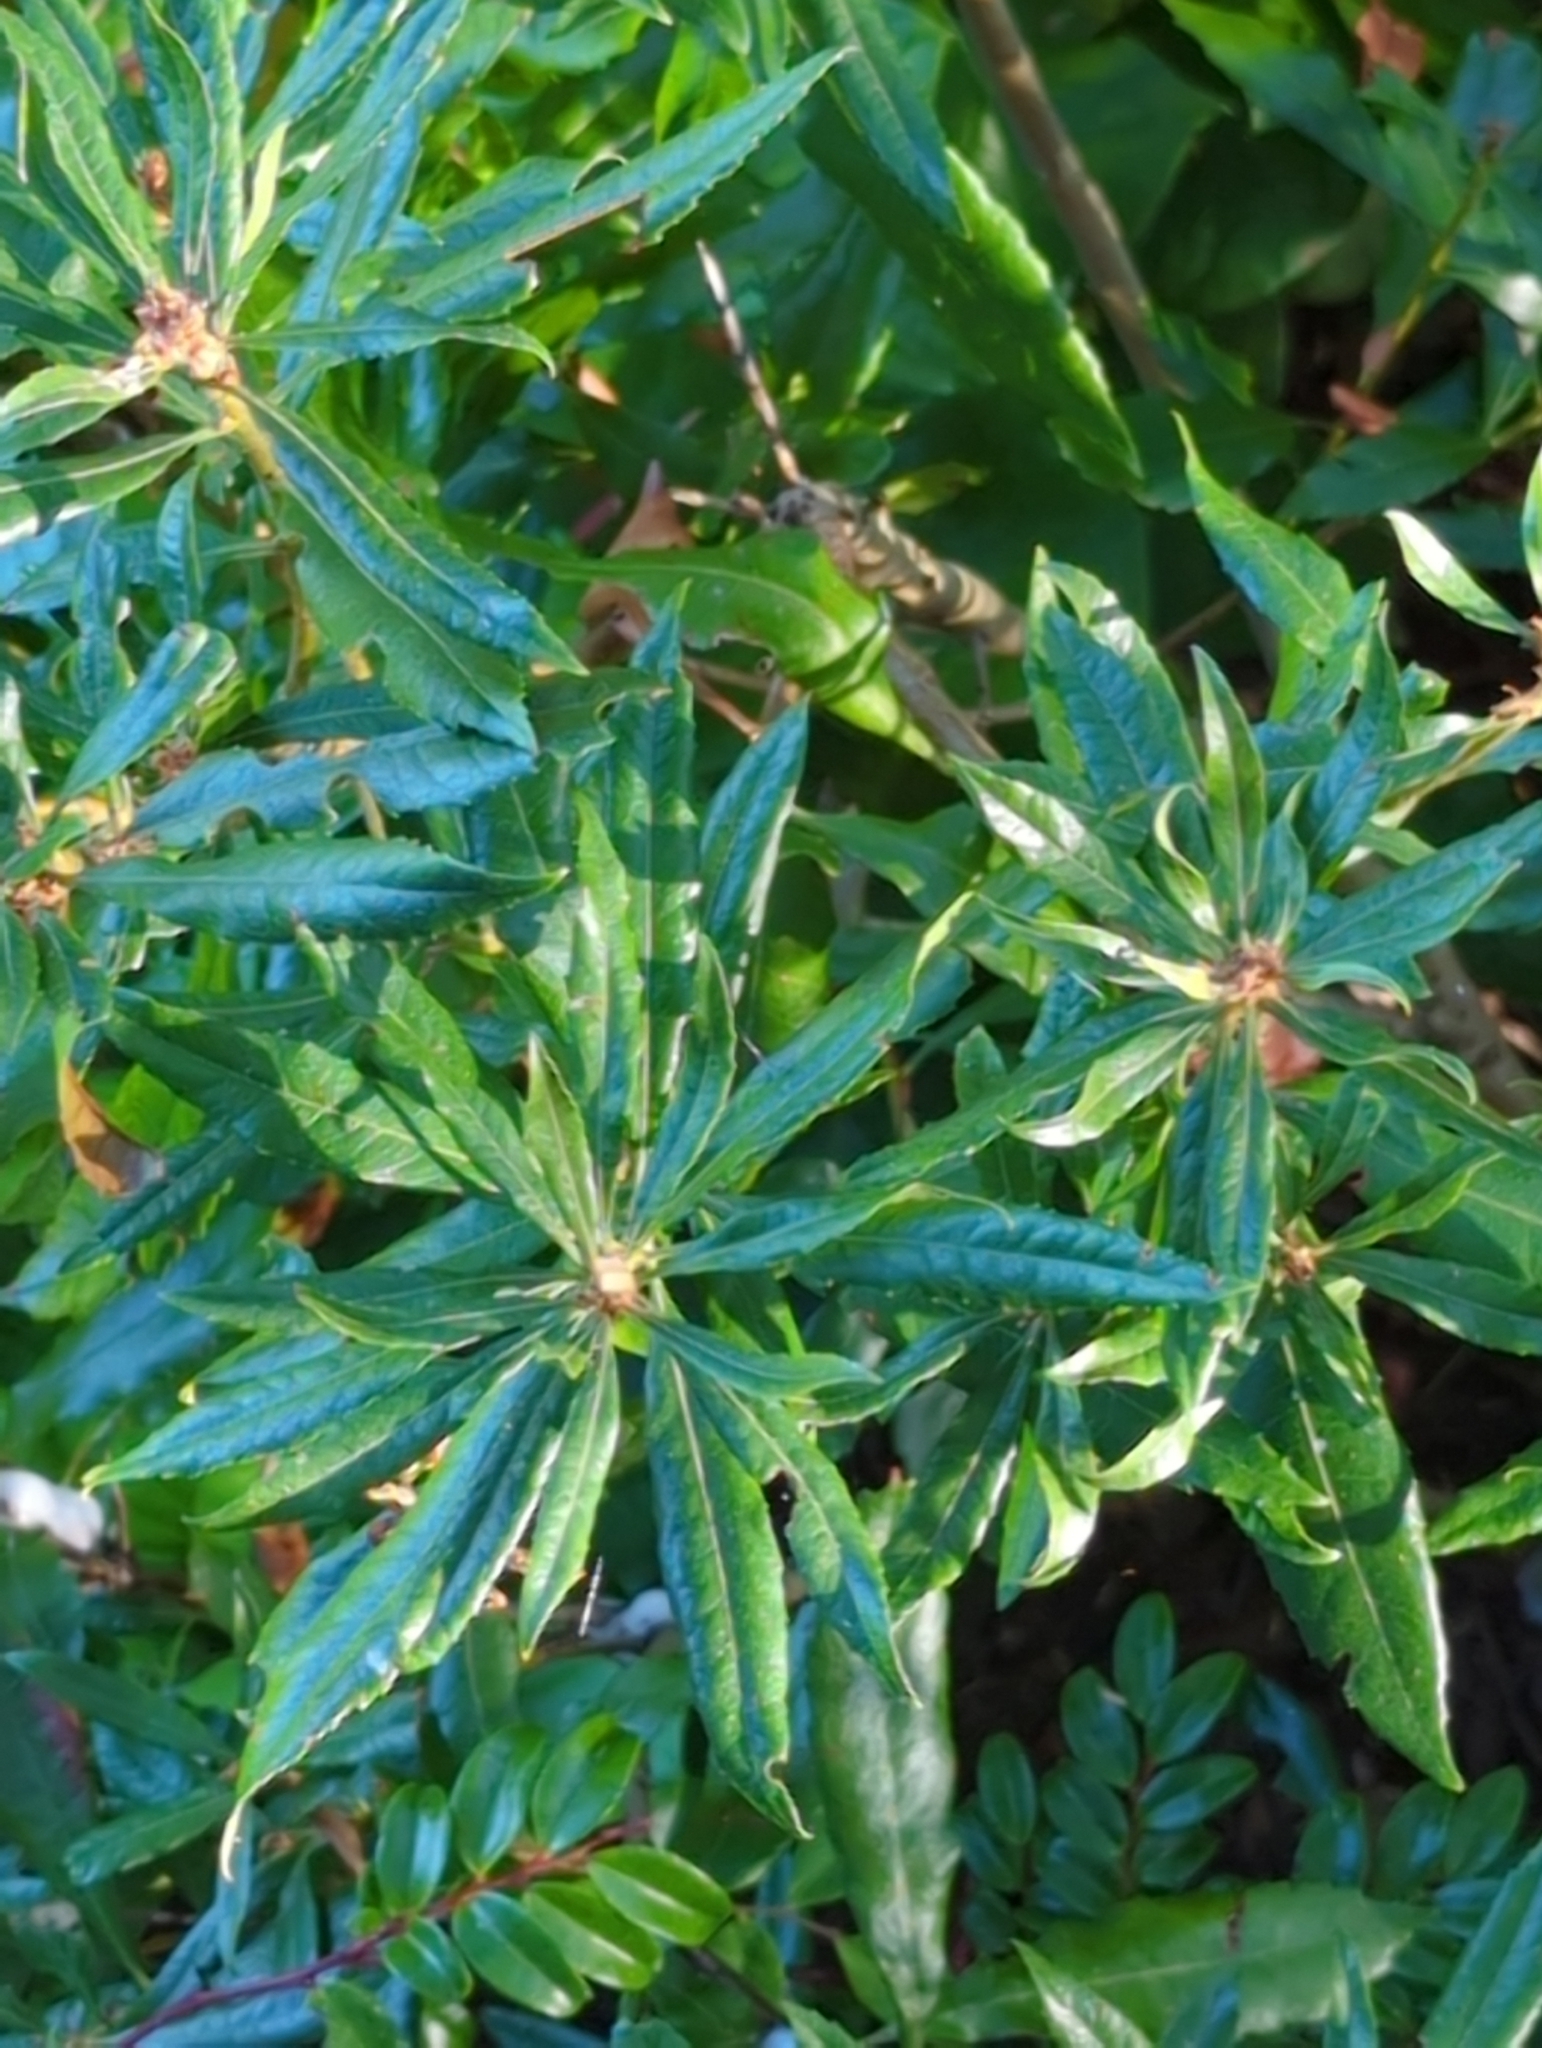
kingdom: Plantae
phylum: Tracheophyta
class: Magnoliopsida
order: Fagales
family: Myricaceae
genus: Morella
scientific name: Morella californica
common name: California wax-myrtle
